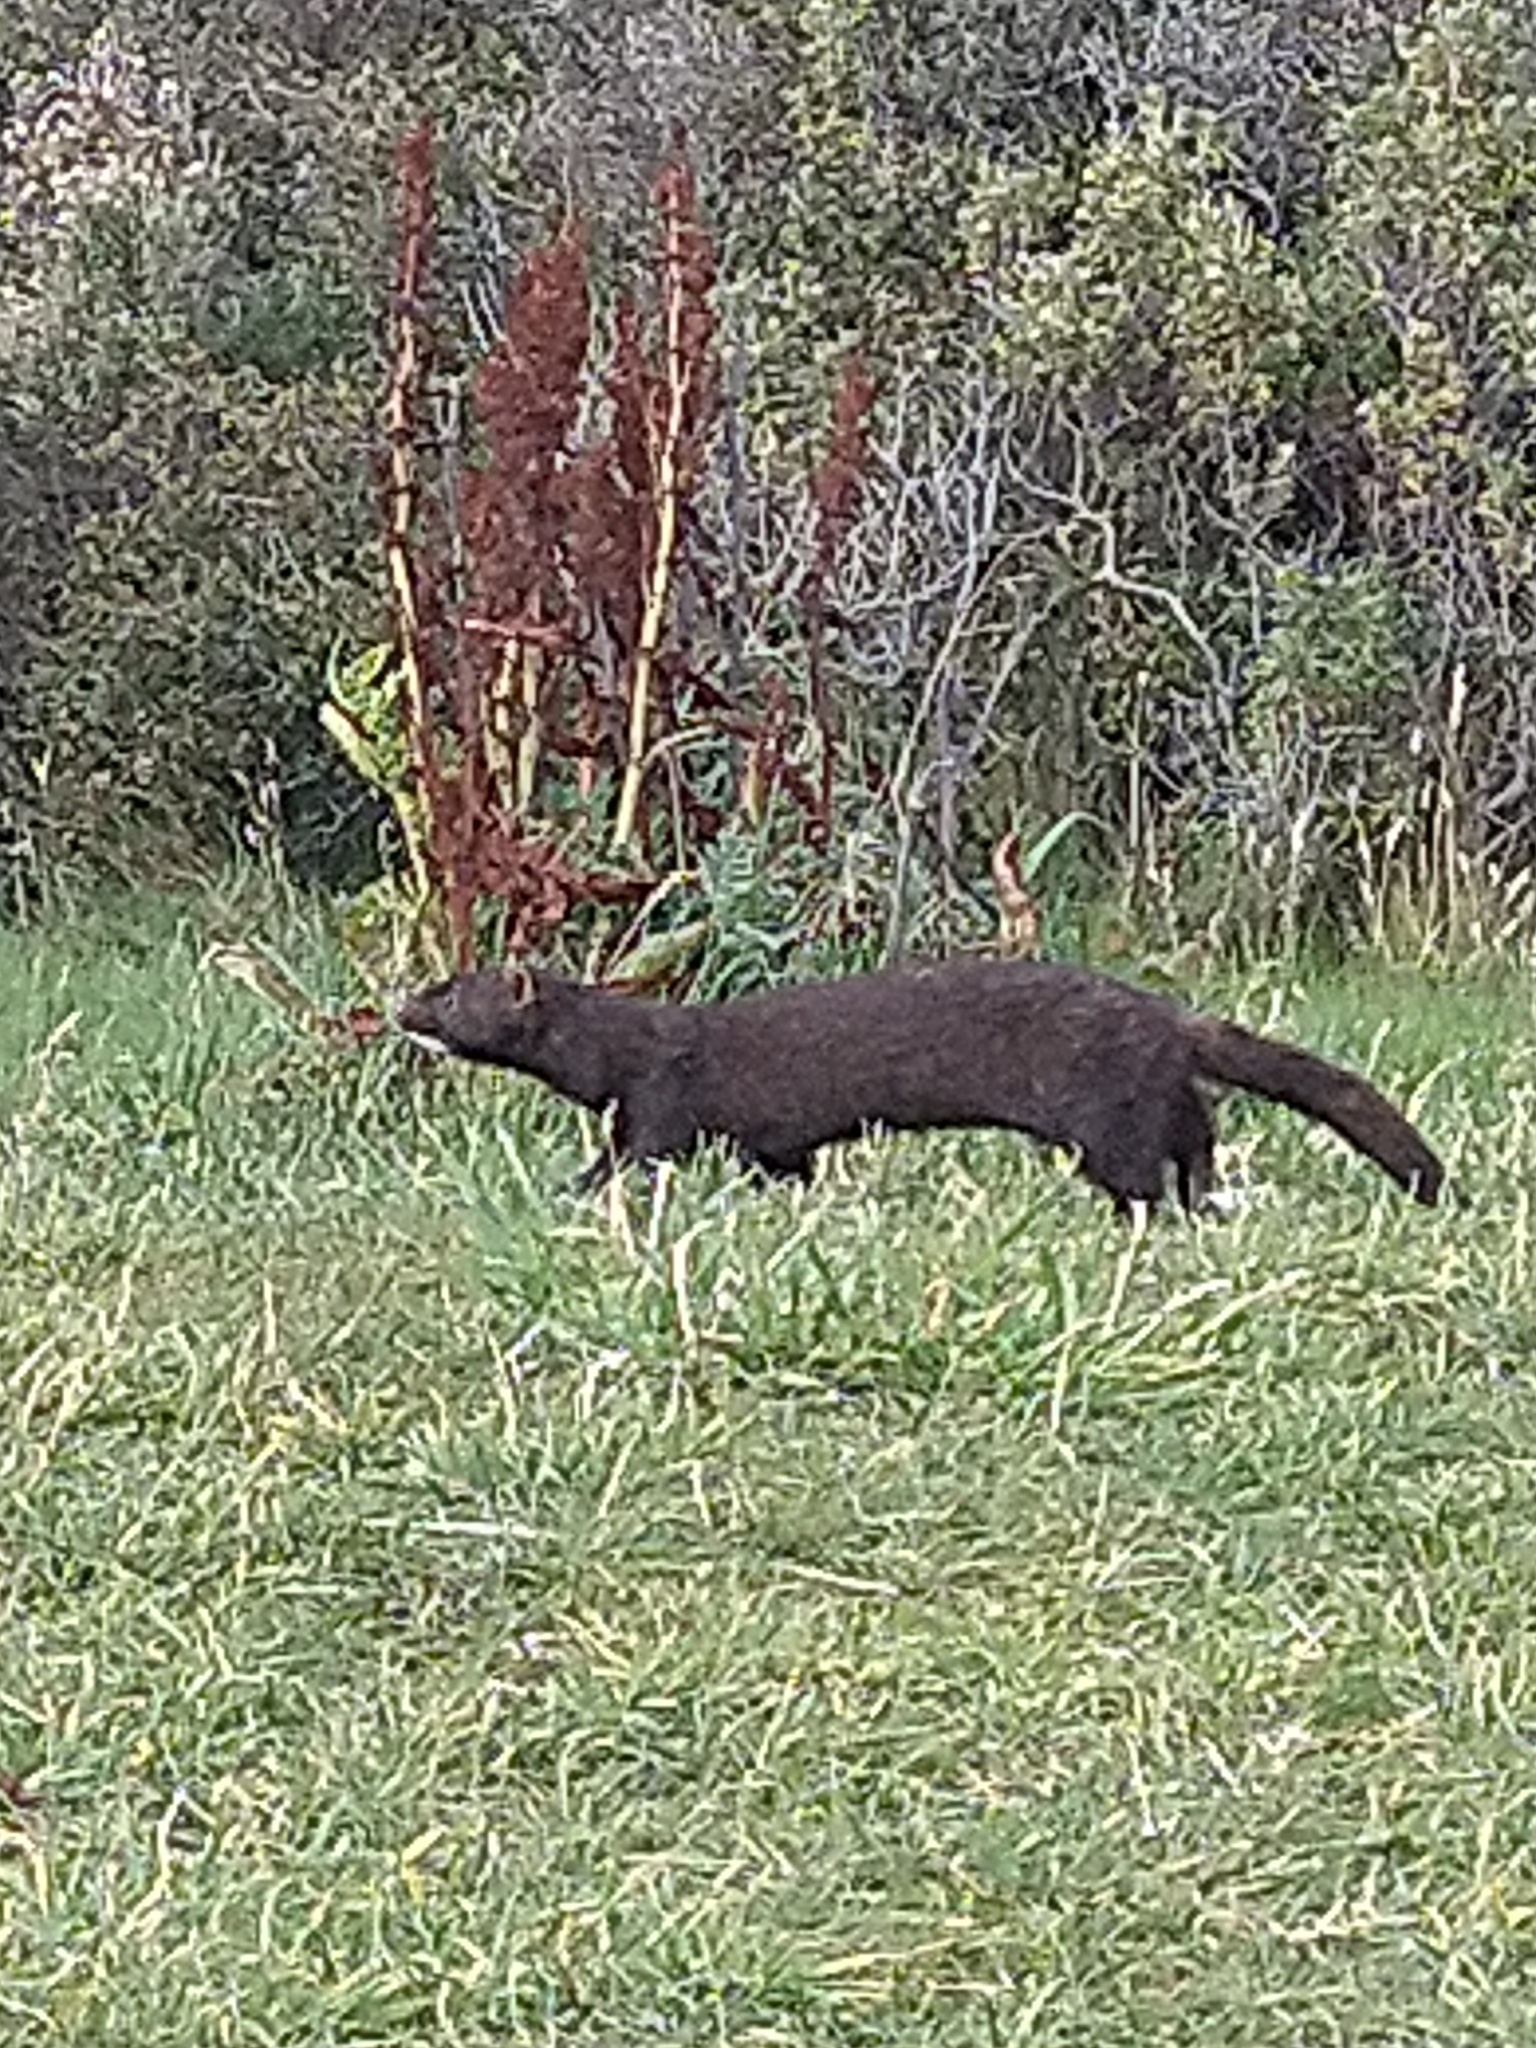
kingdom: Animalia
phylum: Chordata
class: Mammalia
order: Carnivora
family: Mustelidae
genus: Mustela
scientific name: Mustela
